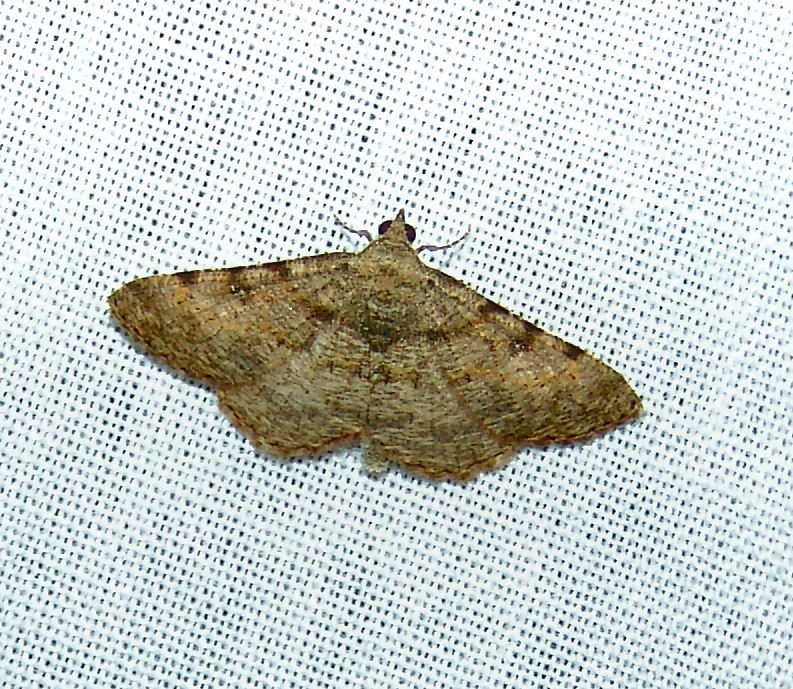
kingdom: Animalia
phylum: Arthropoda
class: Insecta
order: Lepidoptera
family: Geometridae
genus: Digrammia
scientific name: Digrammia gnophosaria
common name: Hollow-spotted angle
